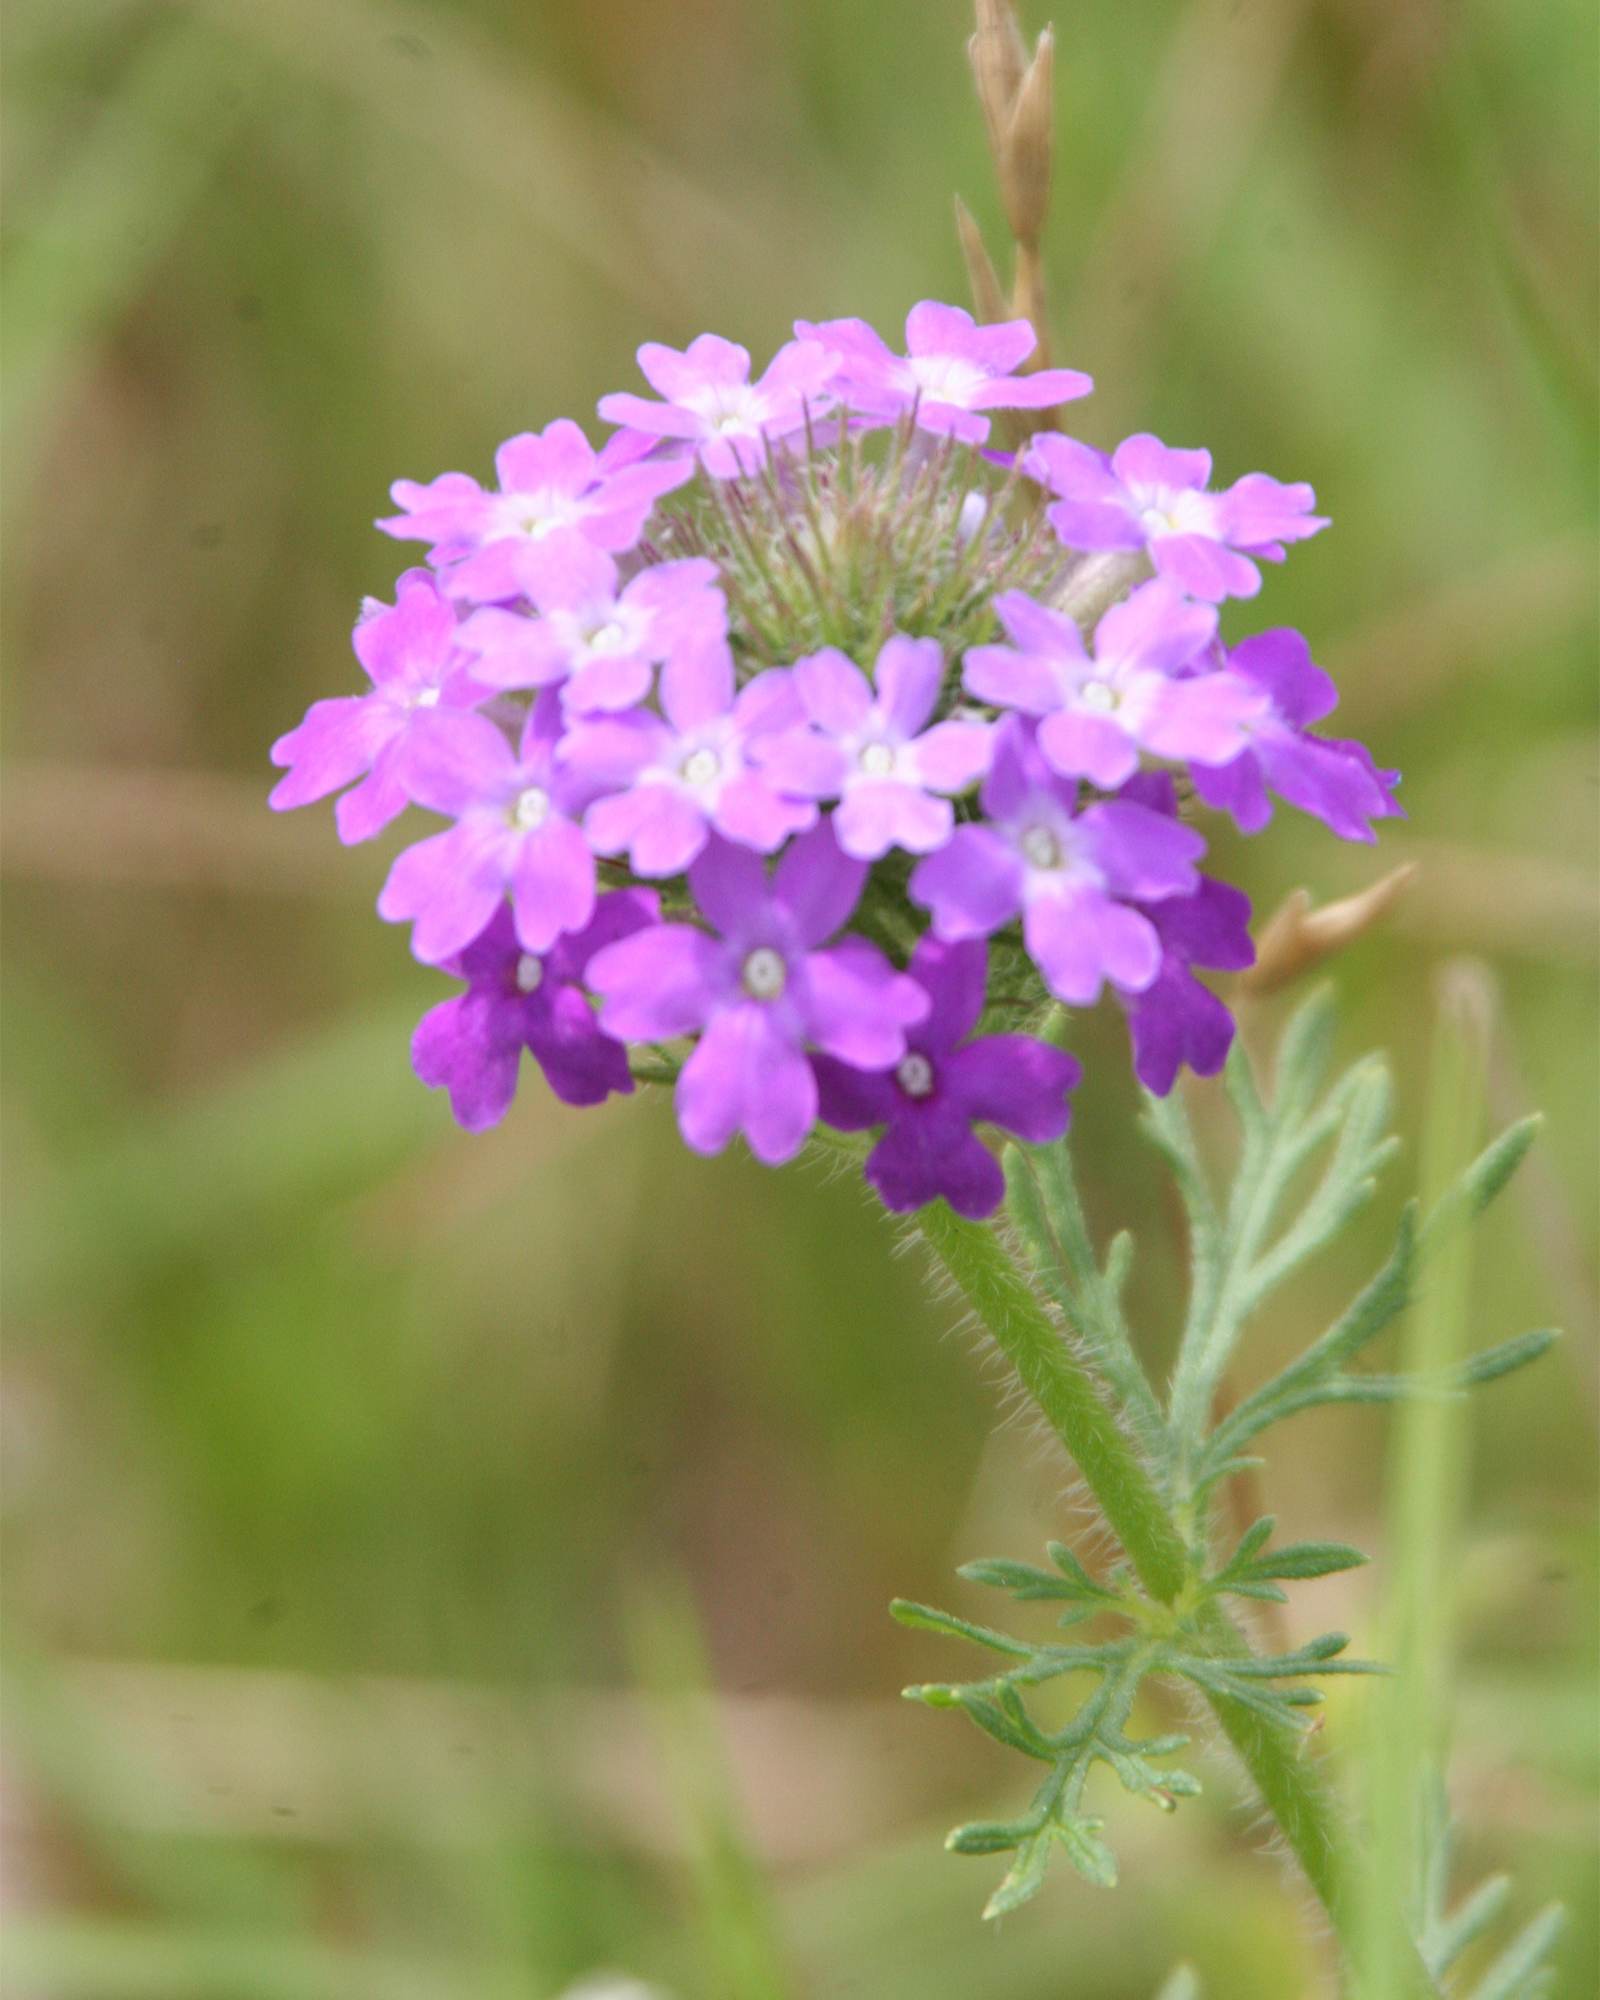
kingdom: Plantae
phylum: Tracheophyta
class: Magnoliopsida
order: Lamiales
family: Verbenaceae
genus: Verbena
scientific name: Verbena bipinnatifida
